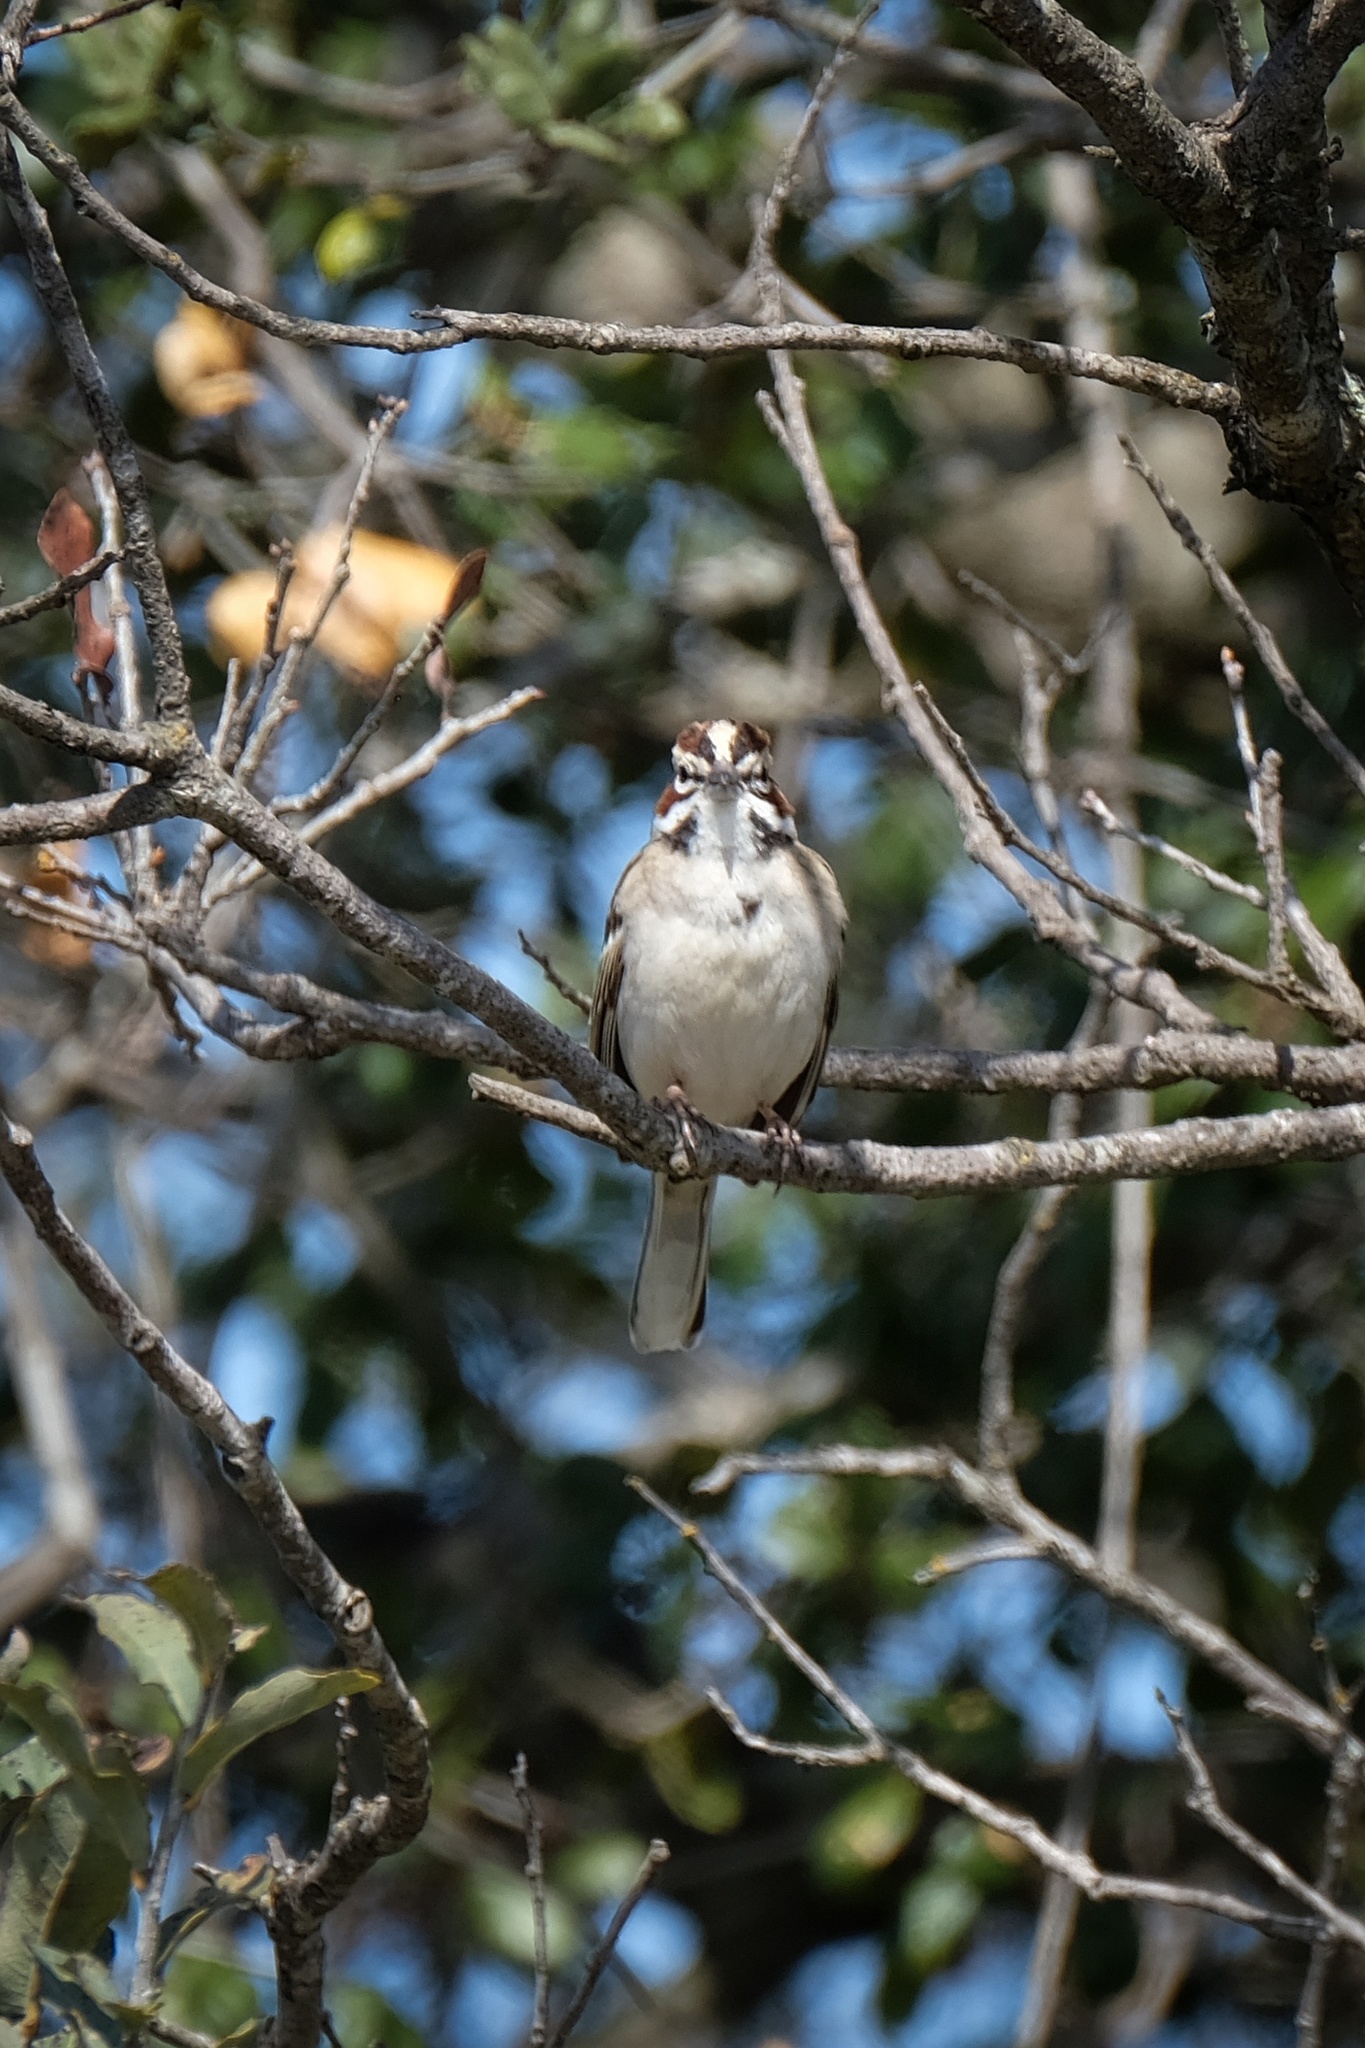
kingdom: Animalia
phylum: Chordata
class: Aves
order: Passeriformes
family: Passerellidae
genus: Chondestes
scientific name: Chondestes grammacus
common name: Lark sparrow
